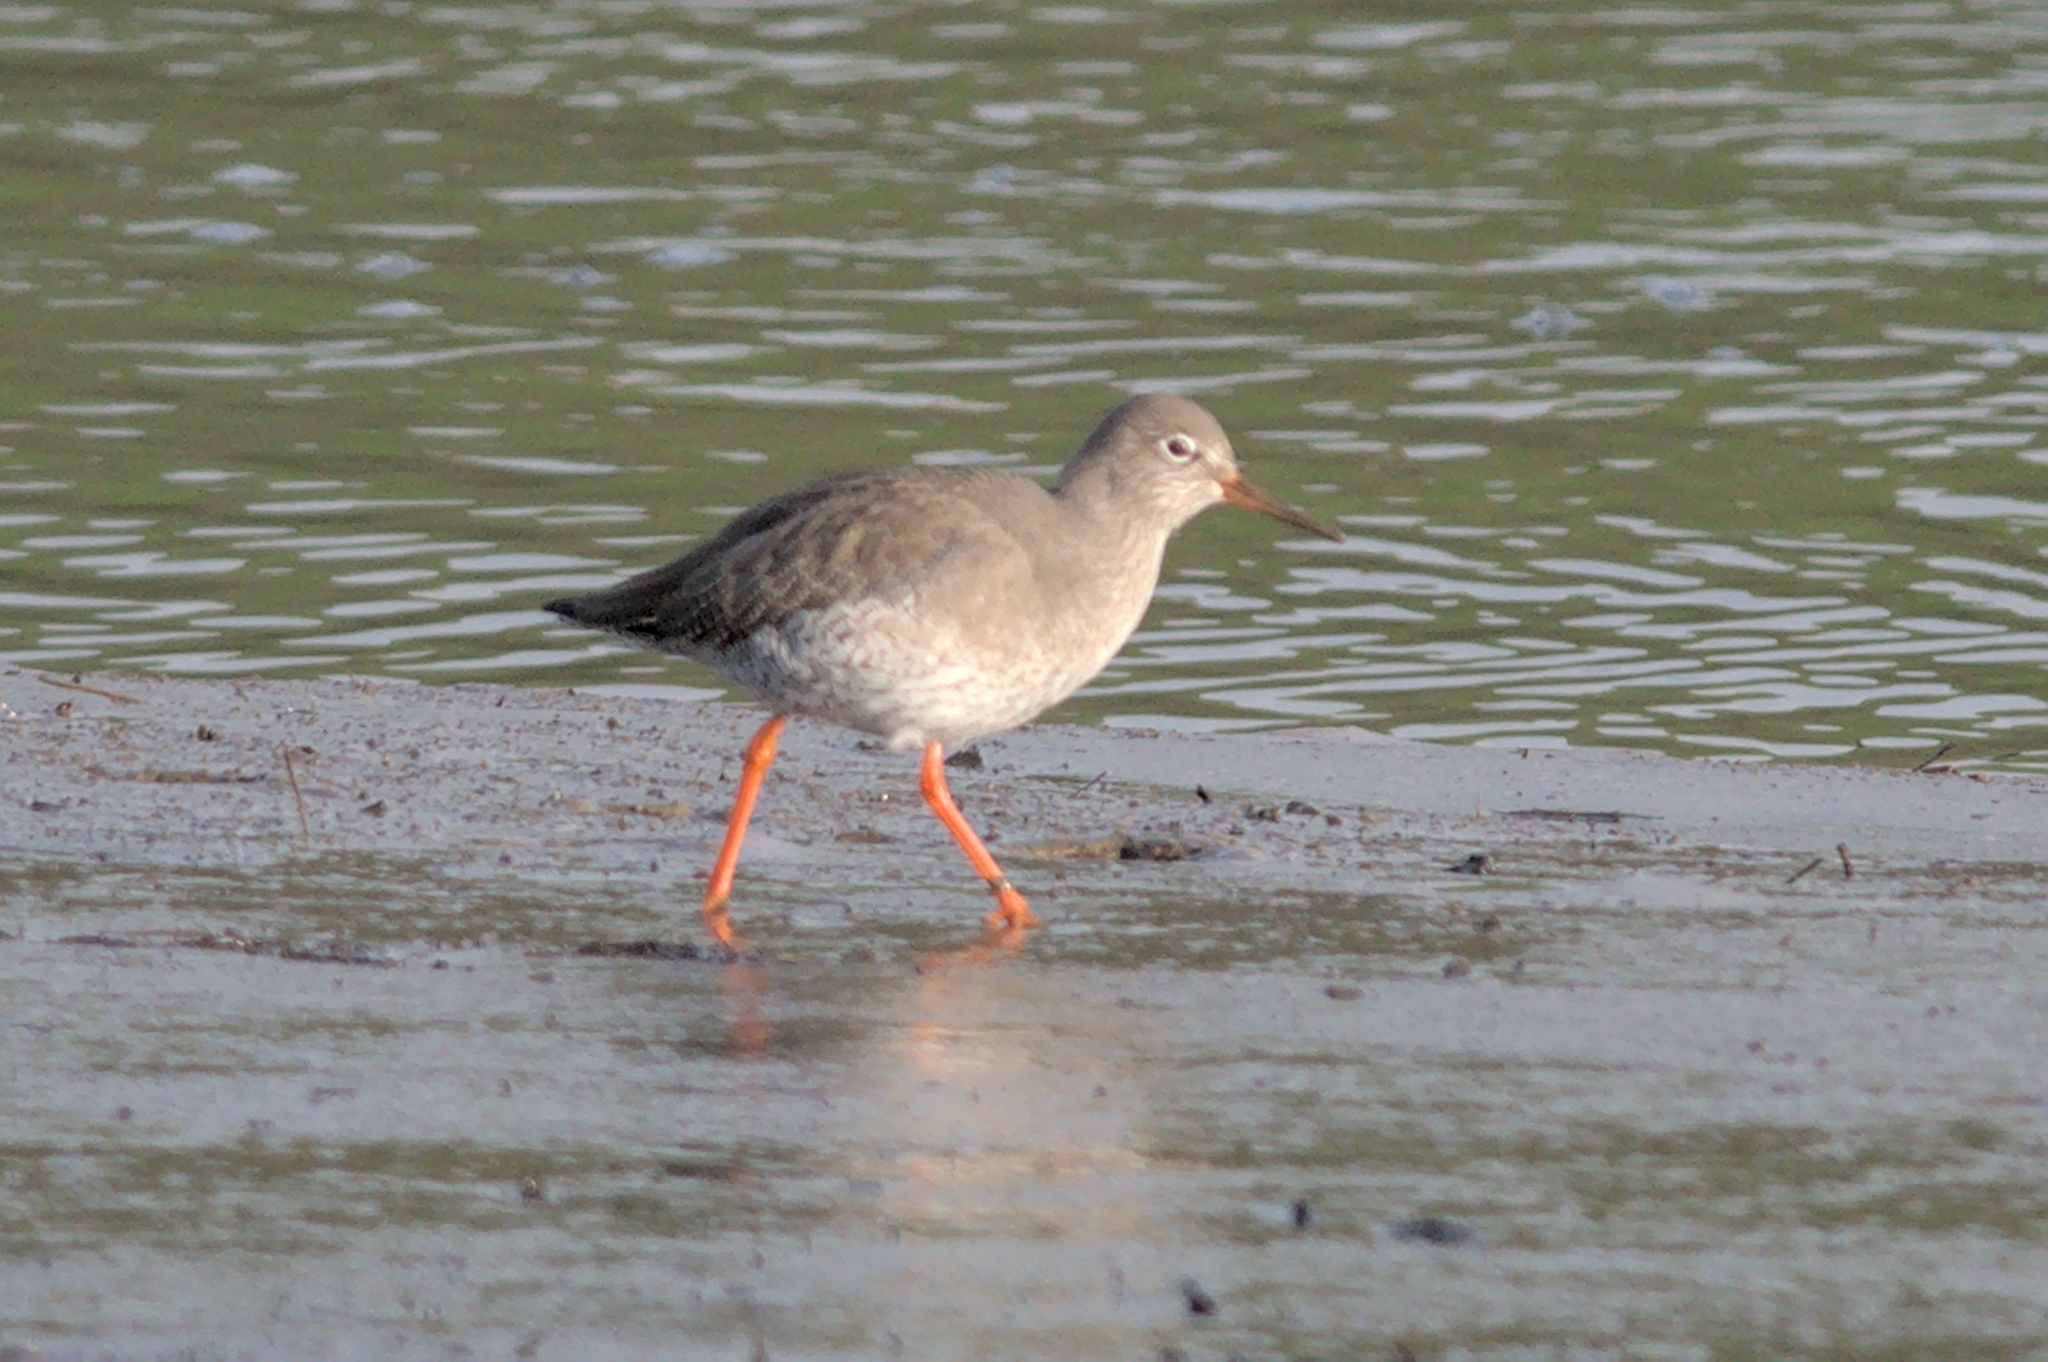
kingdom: Animalia
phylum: Chordata
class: Aves
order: Charadriiformes
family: Scolopacidae
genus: Tringa
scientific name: Tringa totanus
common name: Common redshank
